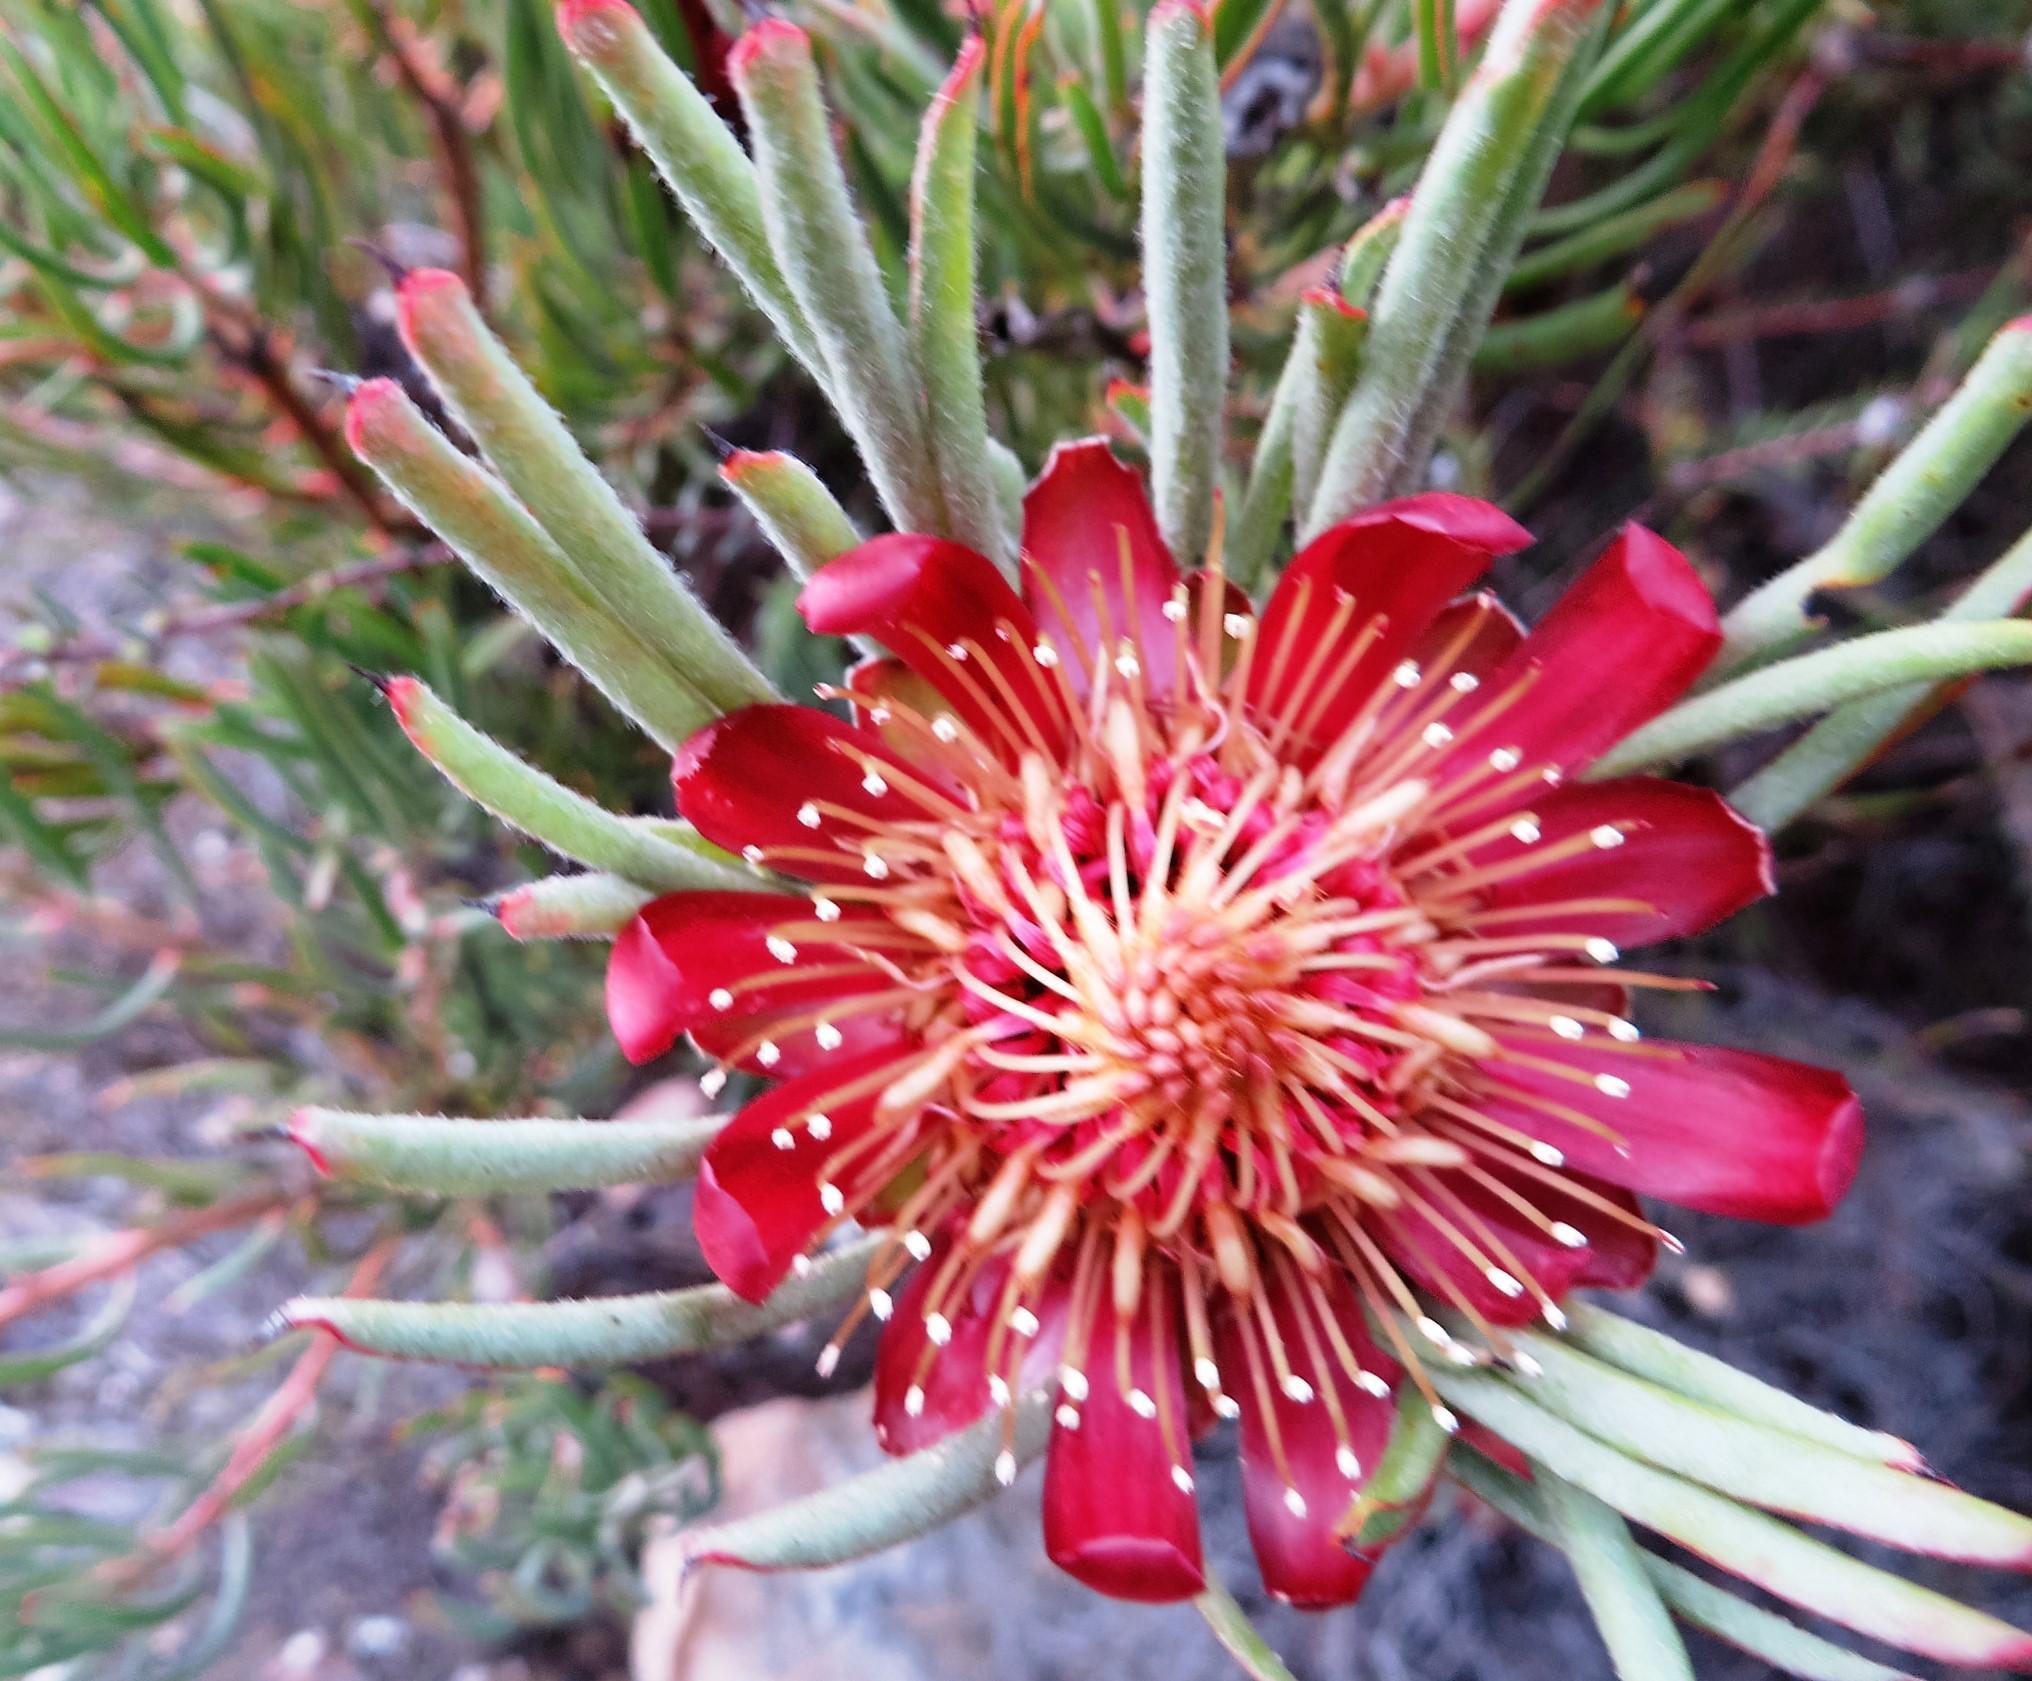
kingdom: Plantae
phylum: Tracheophyta
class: Magnoliopsida
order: Proteales
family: Proteaceae
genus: Protea
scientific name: Protea canaliculata
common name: Groove-leaf sugarbush
